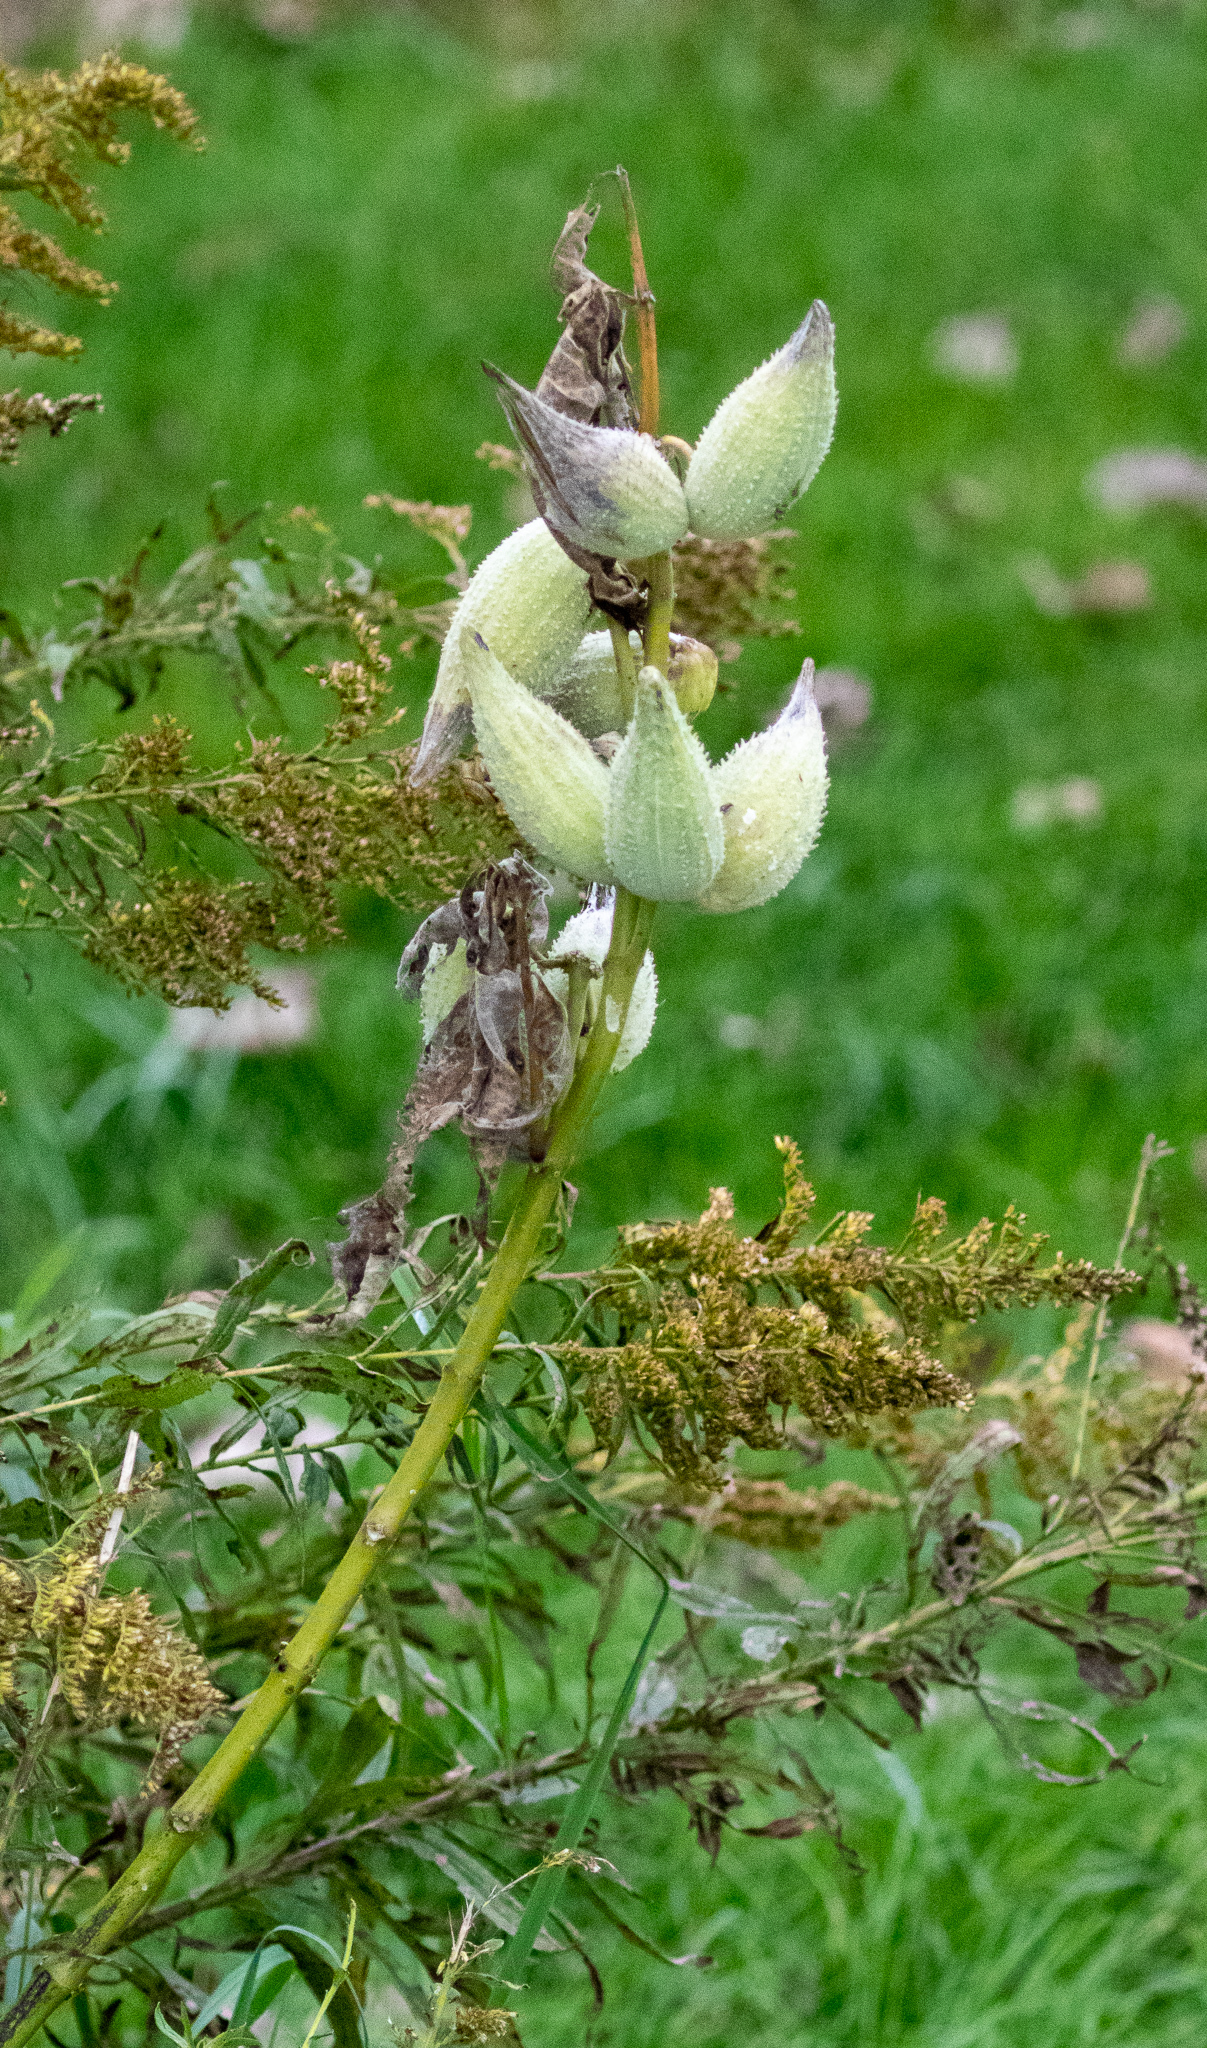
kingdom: Plantae
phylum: Tracheophyta
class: Magnoliopsida
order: Gentianales
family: Apocynaceae
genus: Asclepias
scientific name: Asclepias syriaca
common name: Common milkweed
